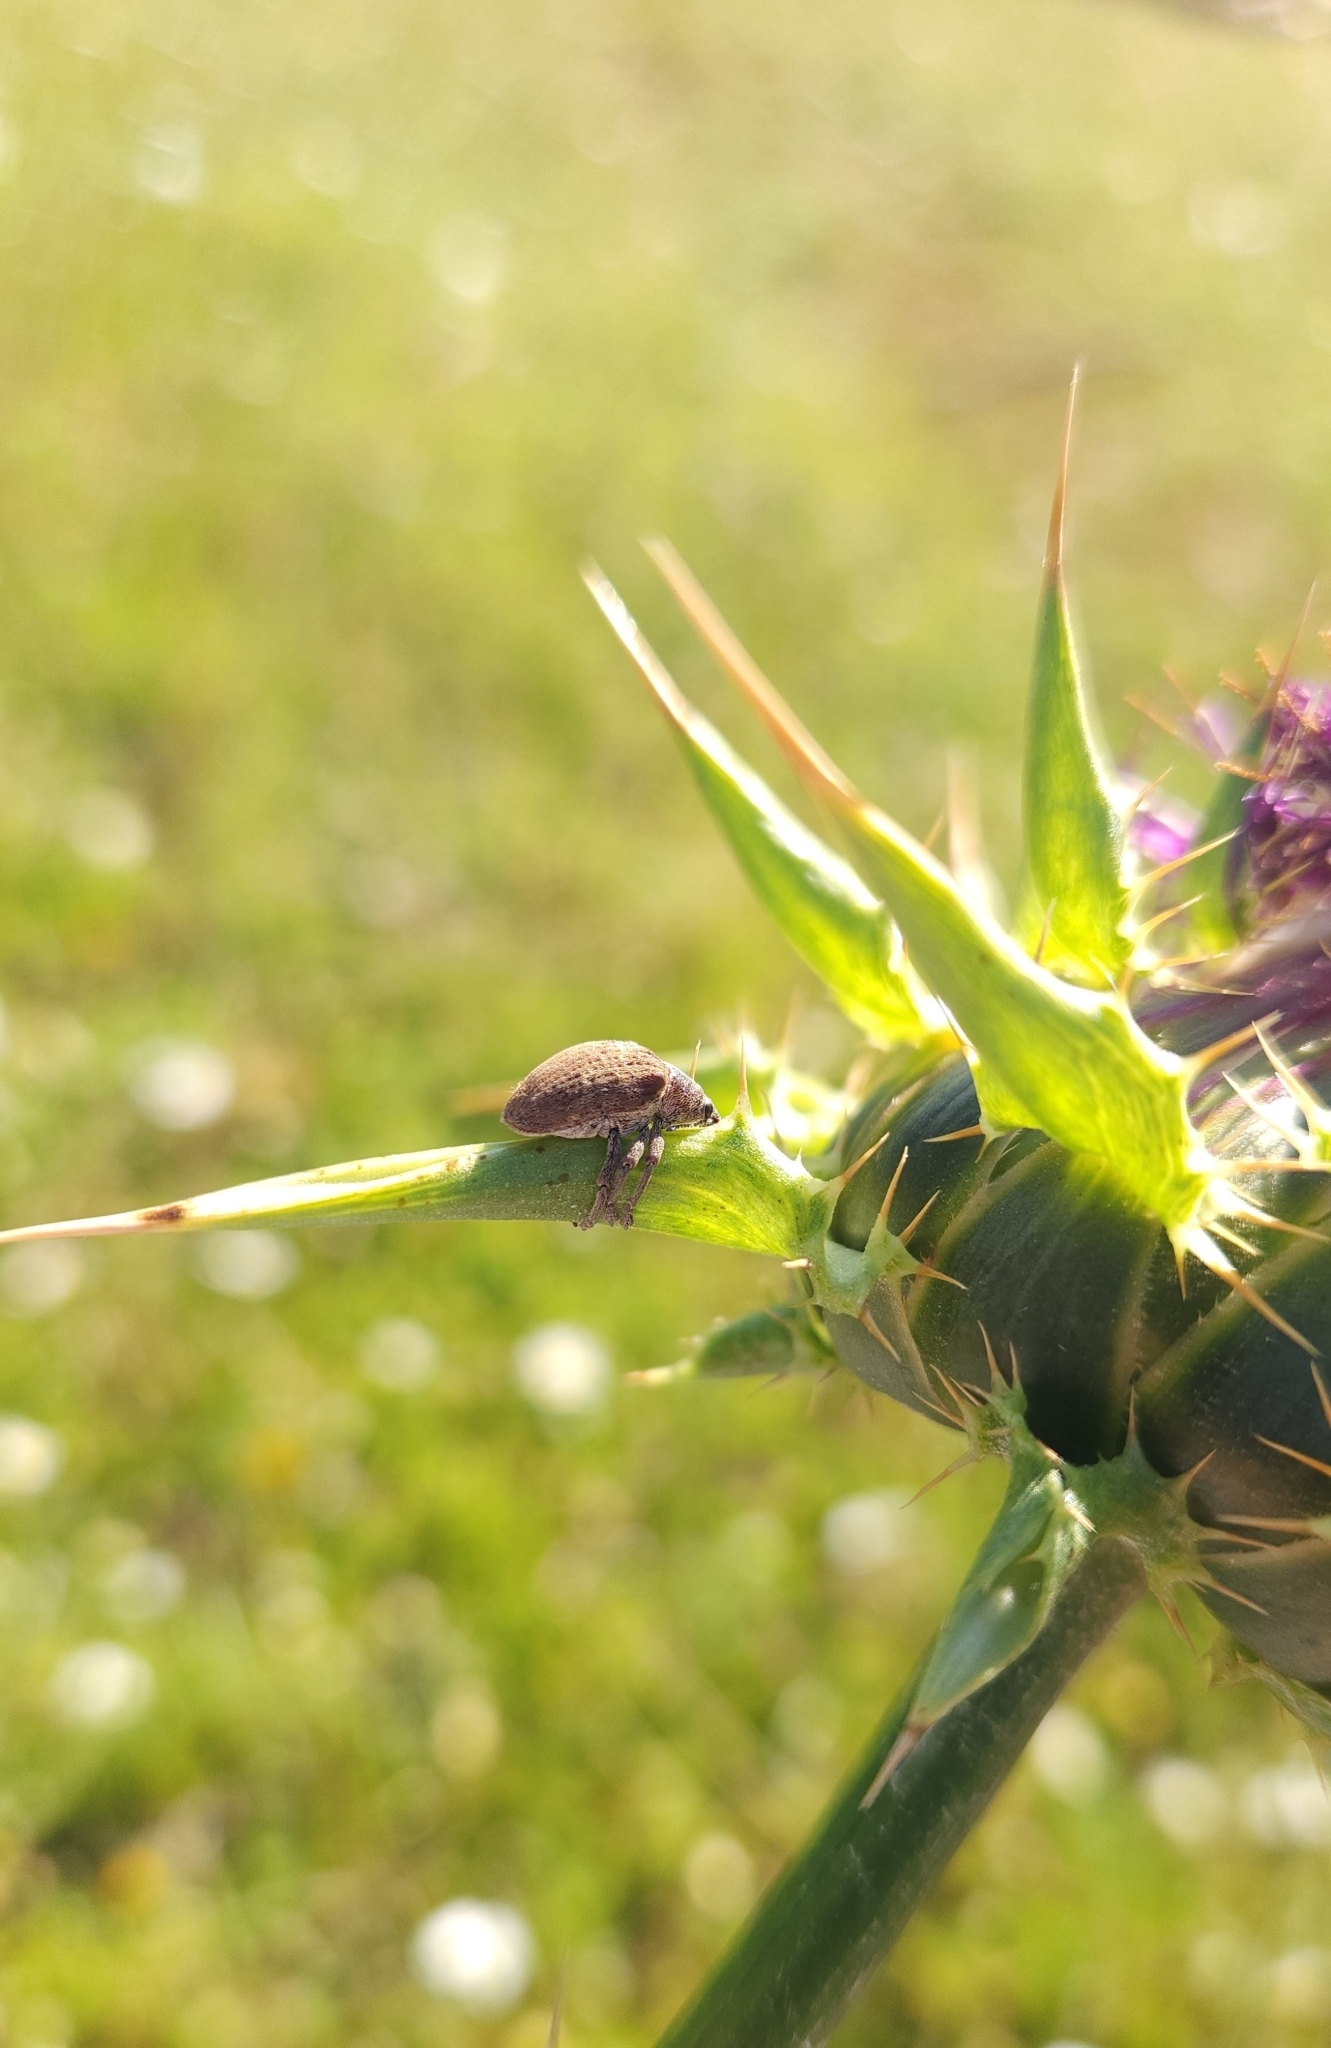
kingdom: Animalia
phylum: Arthropoda
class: Insecta
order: Coleoptera
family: Curculionidae
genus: Gonipterus
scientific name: Gonipterus platensis
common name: Eucalyptus snout beetle
